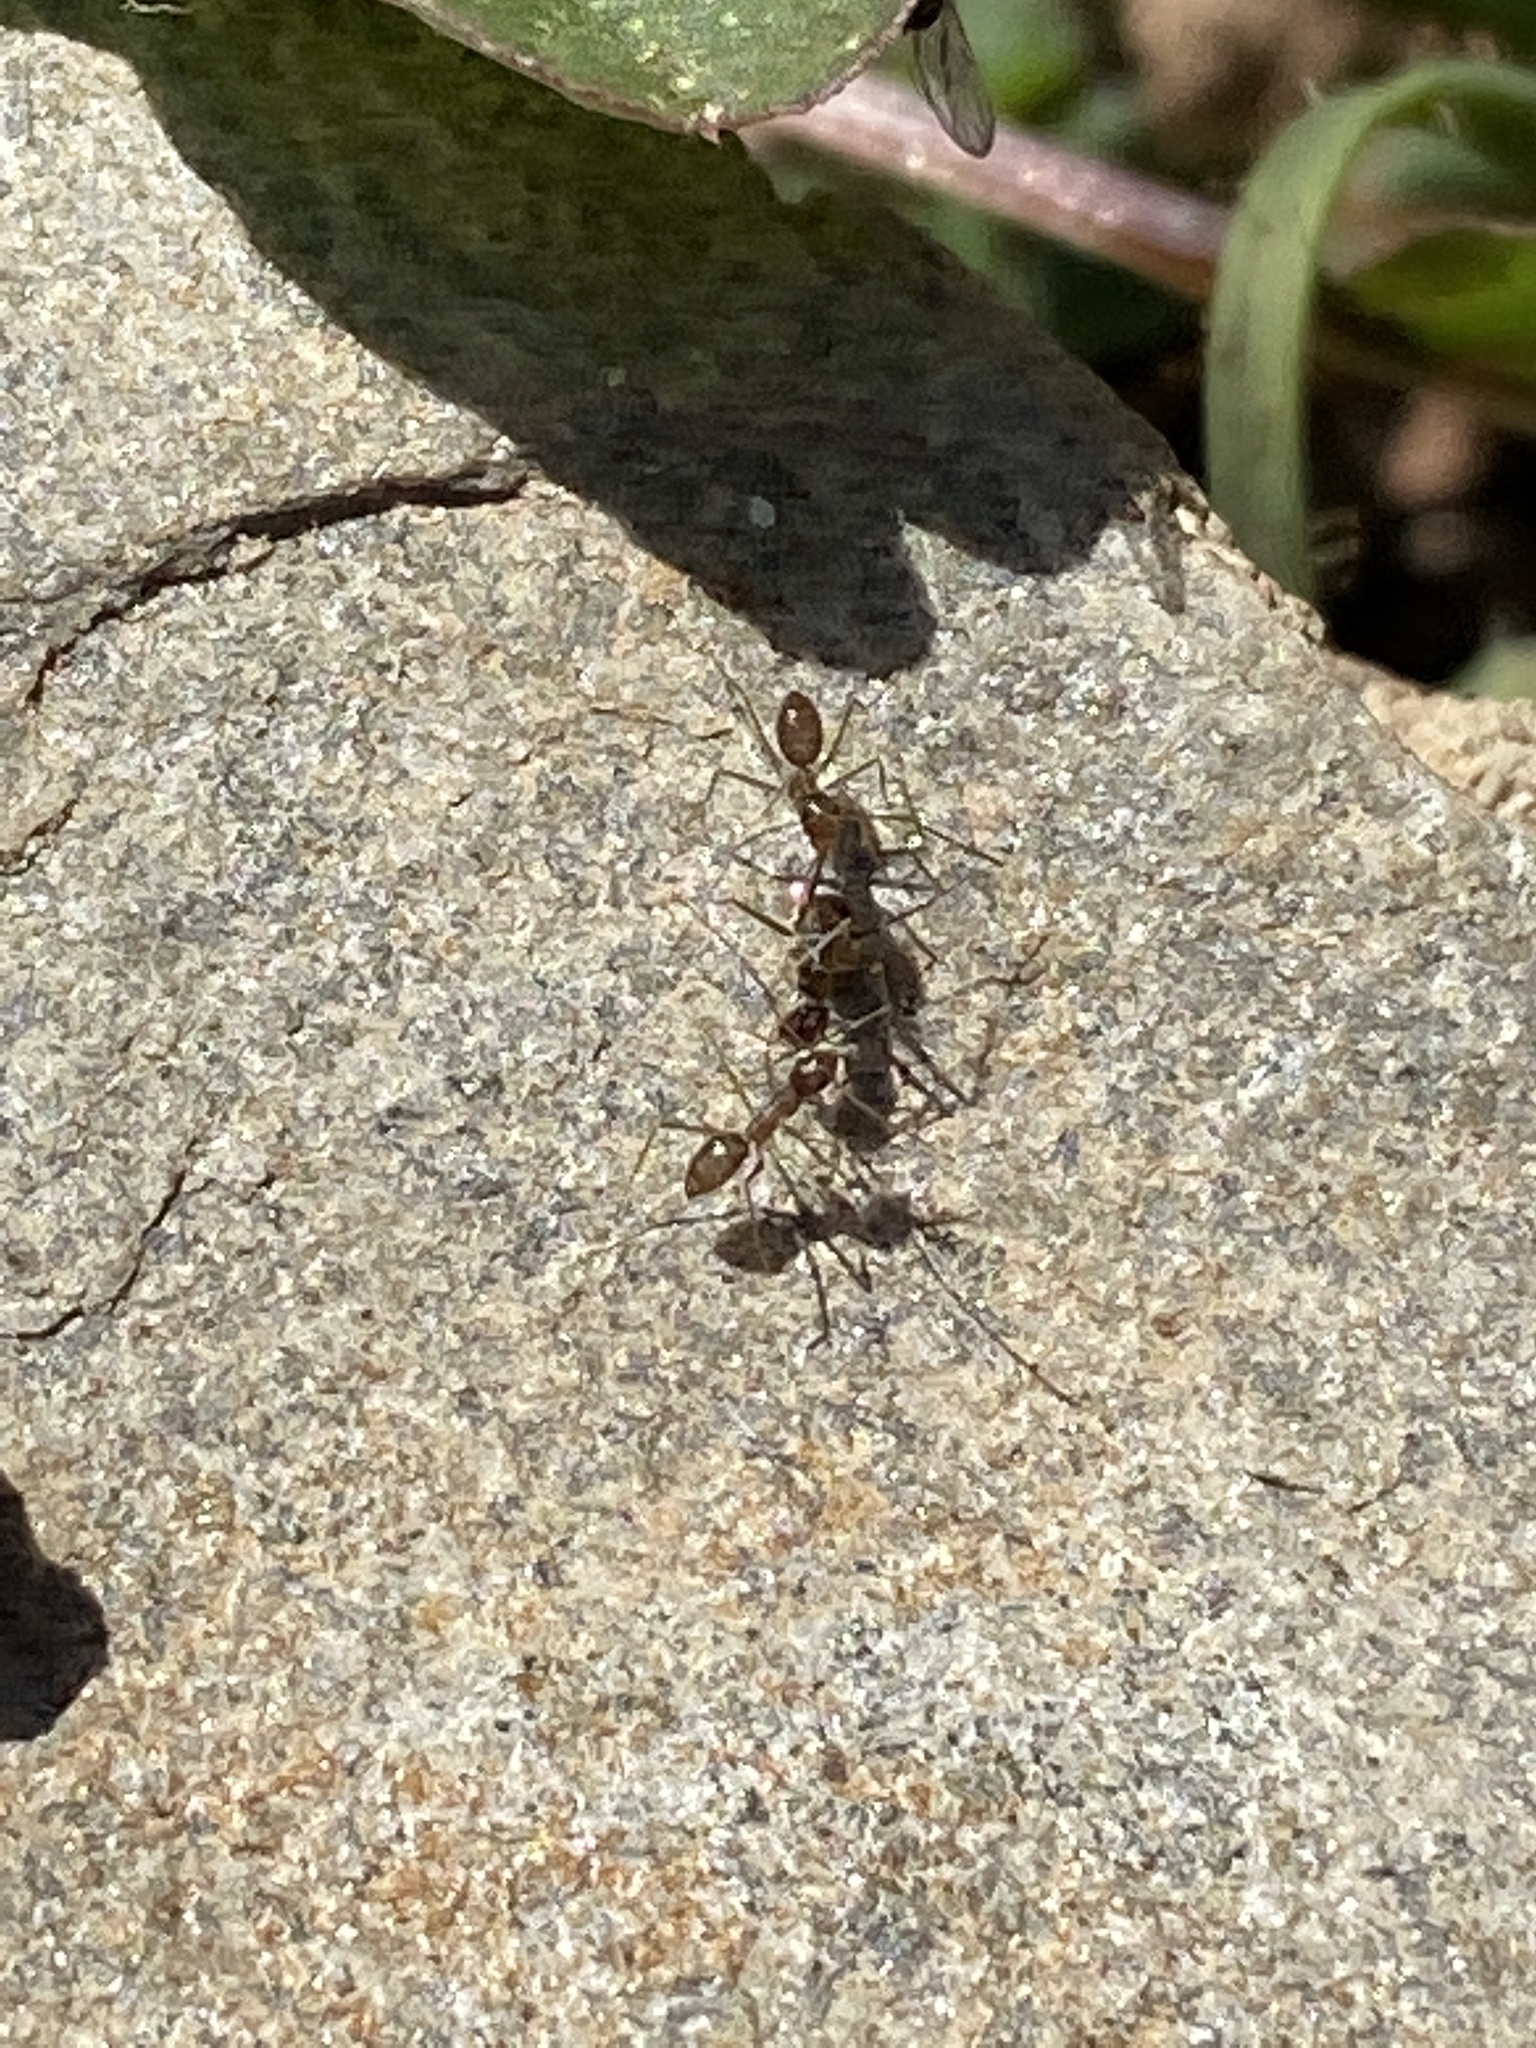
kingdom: Animalia
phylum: Arthropoda
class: Insecta
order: Hymenoptera
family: Formicidae
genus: Paratrechina
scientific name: Paratrechina longicornis
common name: Longhorned crazy ant
